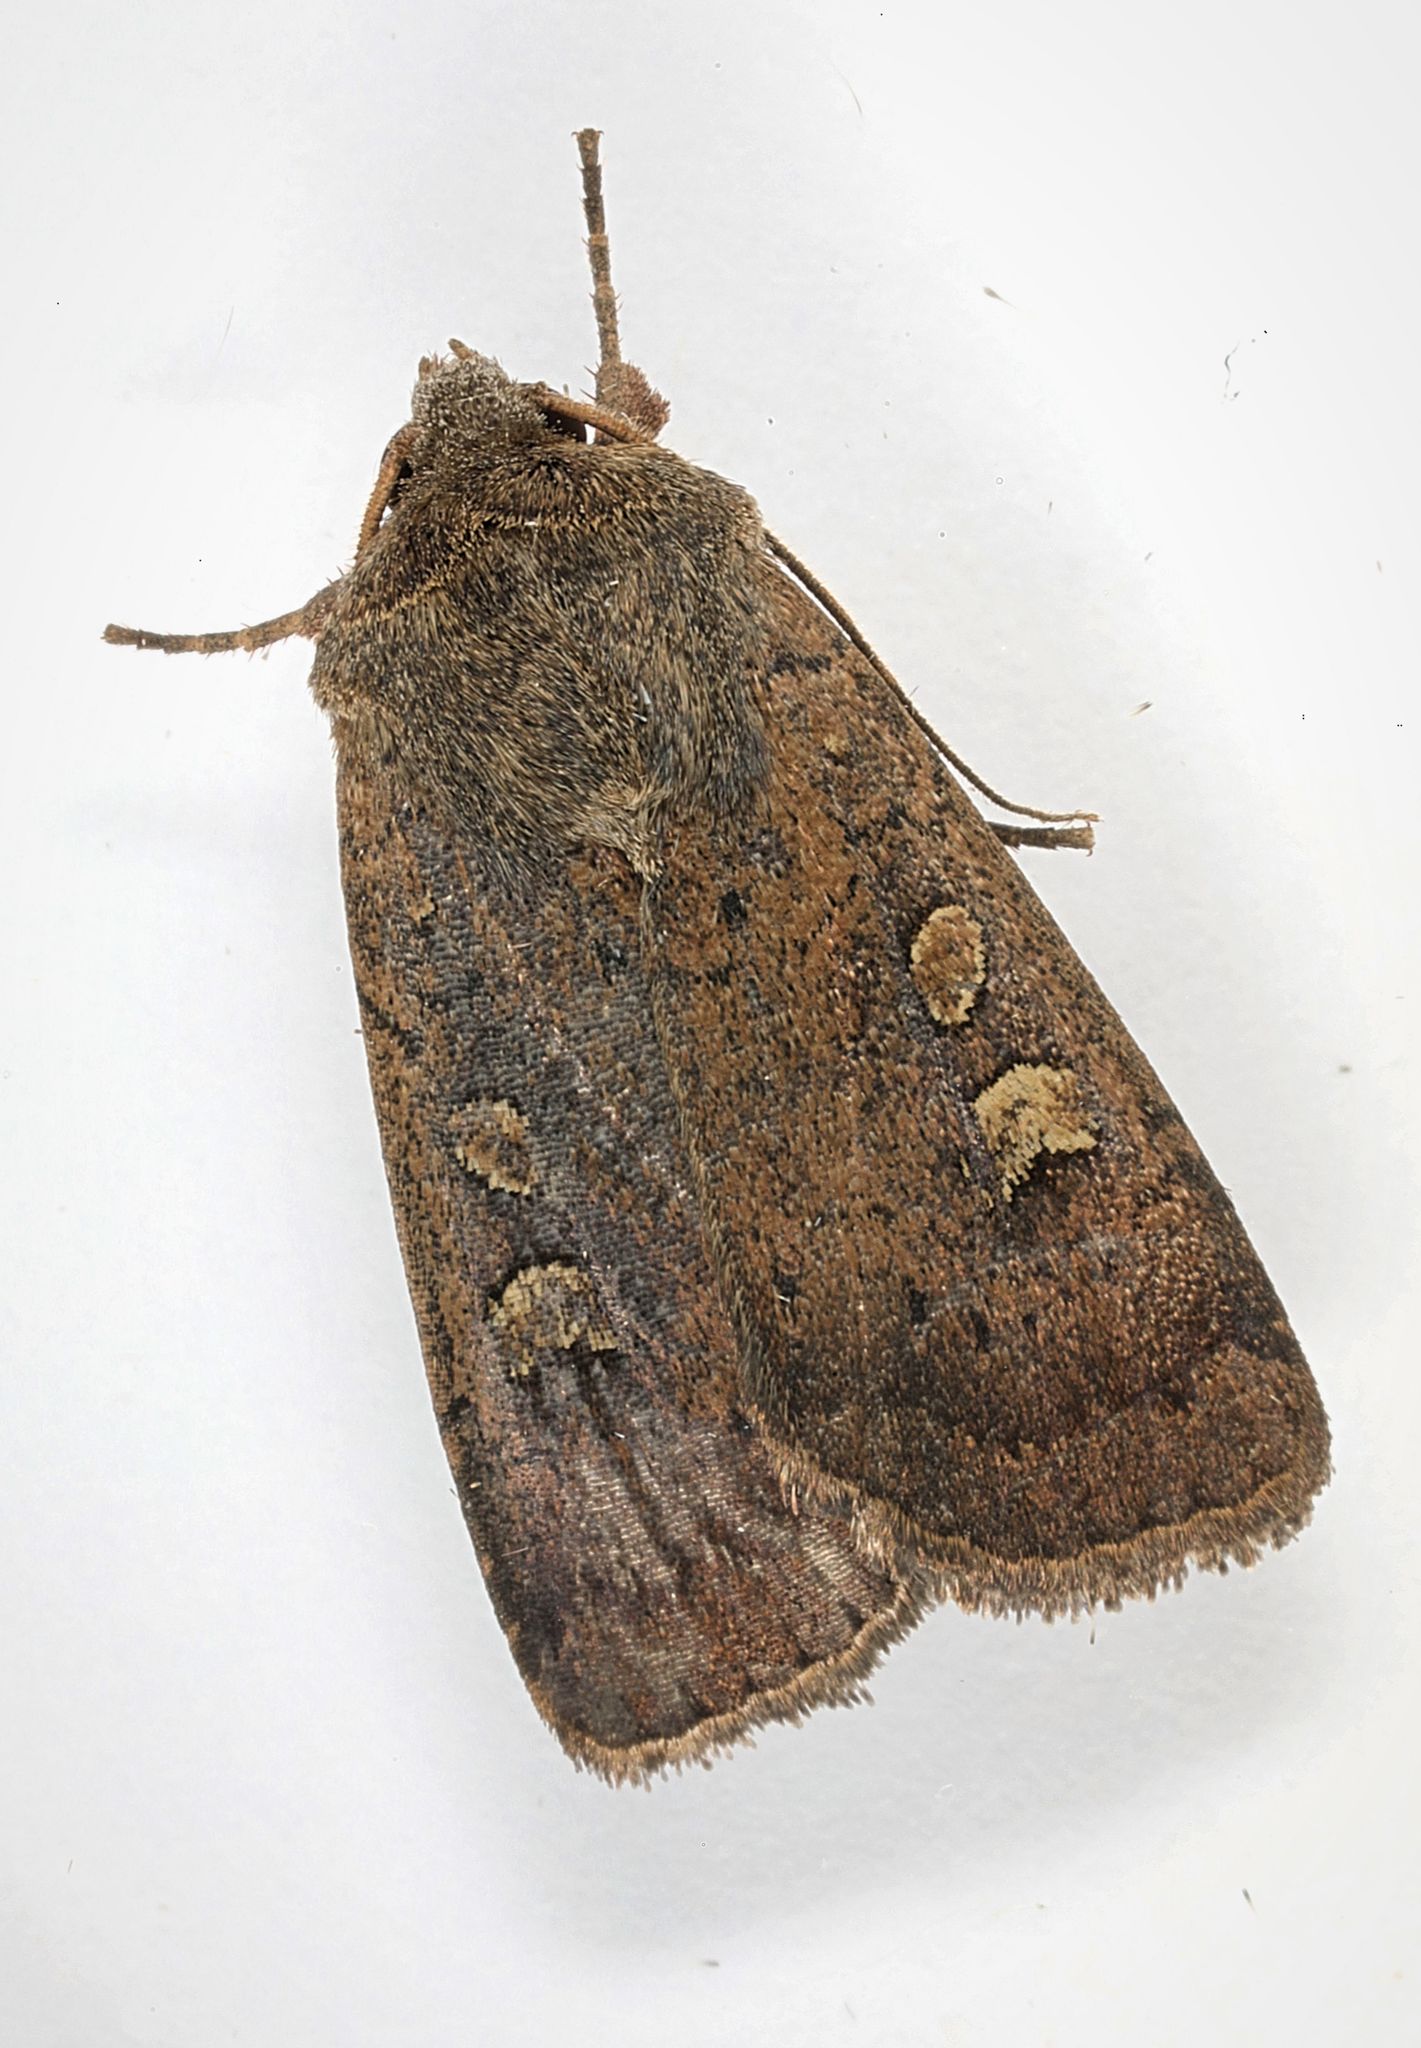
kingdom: Animalia
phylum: Arthropoda
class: Insecta
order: Lepidoptera
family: Noctuidae
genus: Xestia
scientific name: Xestia xanthographa
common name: Square-spot rustic
